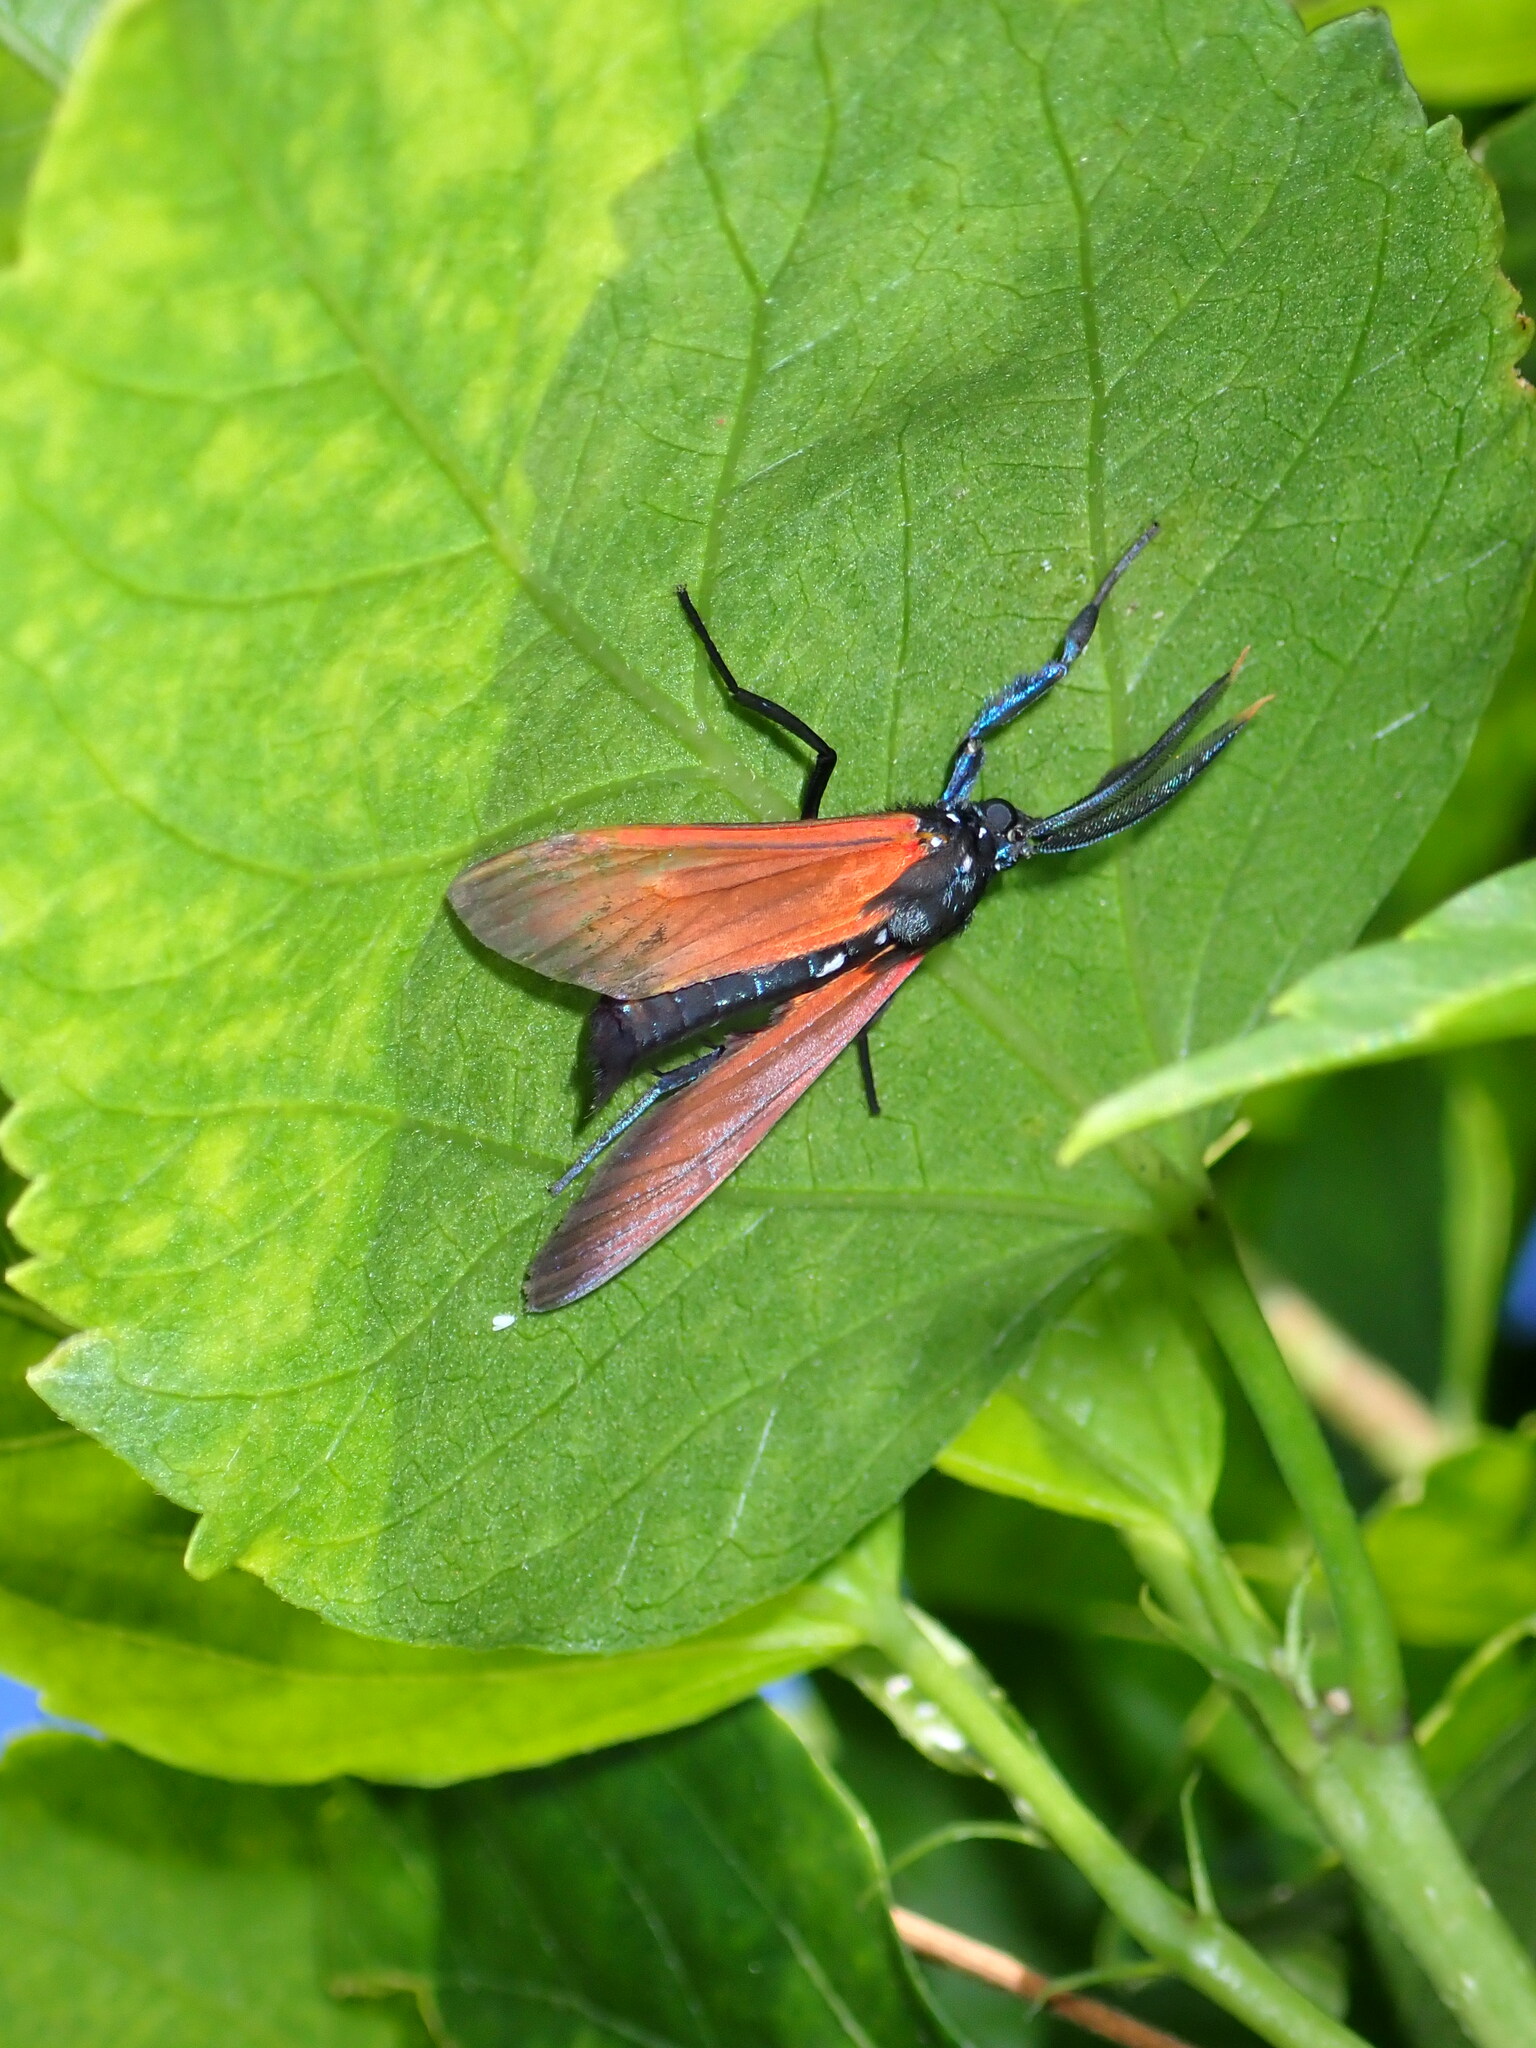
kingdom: Animalia
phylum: Arthropoda
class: Insecta
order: Lepidoptera
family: Erebidae
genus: Empyreuma
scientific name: Empyreuma pugione
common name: Spotted oleander caterpillar moth
